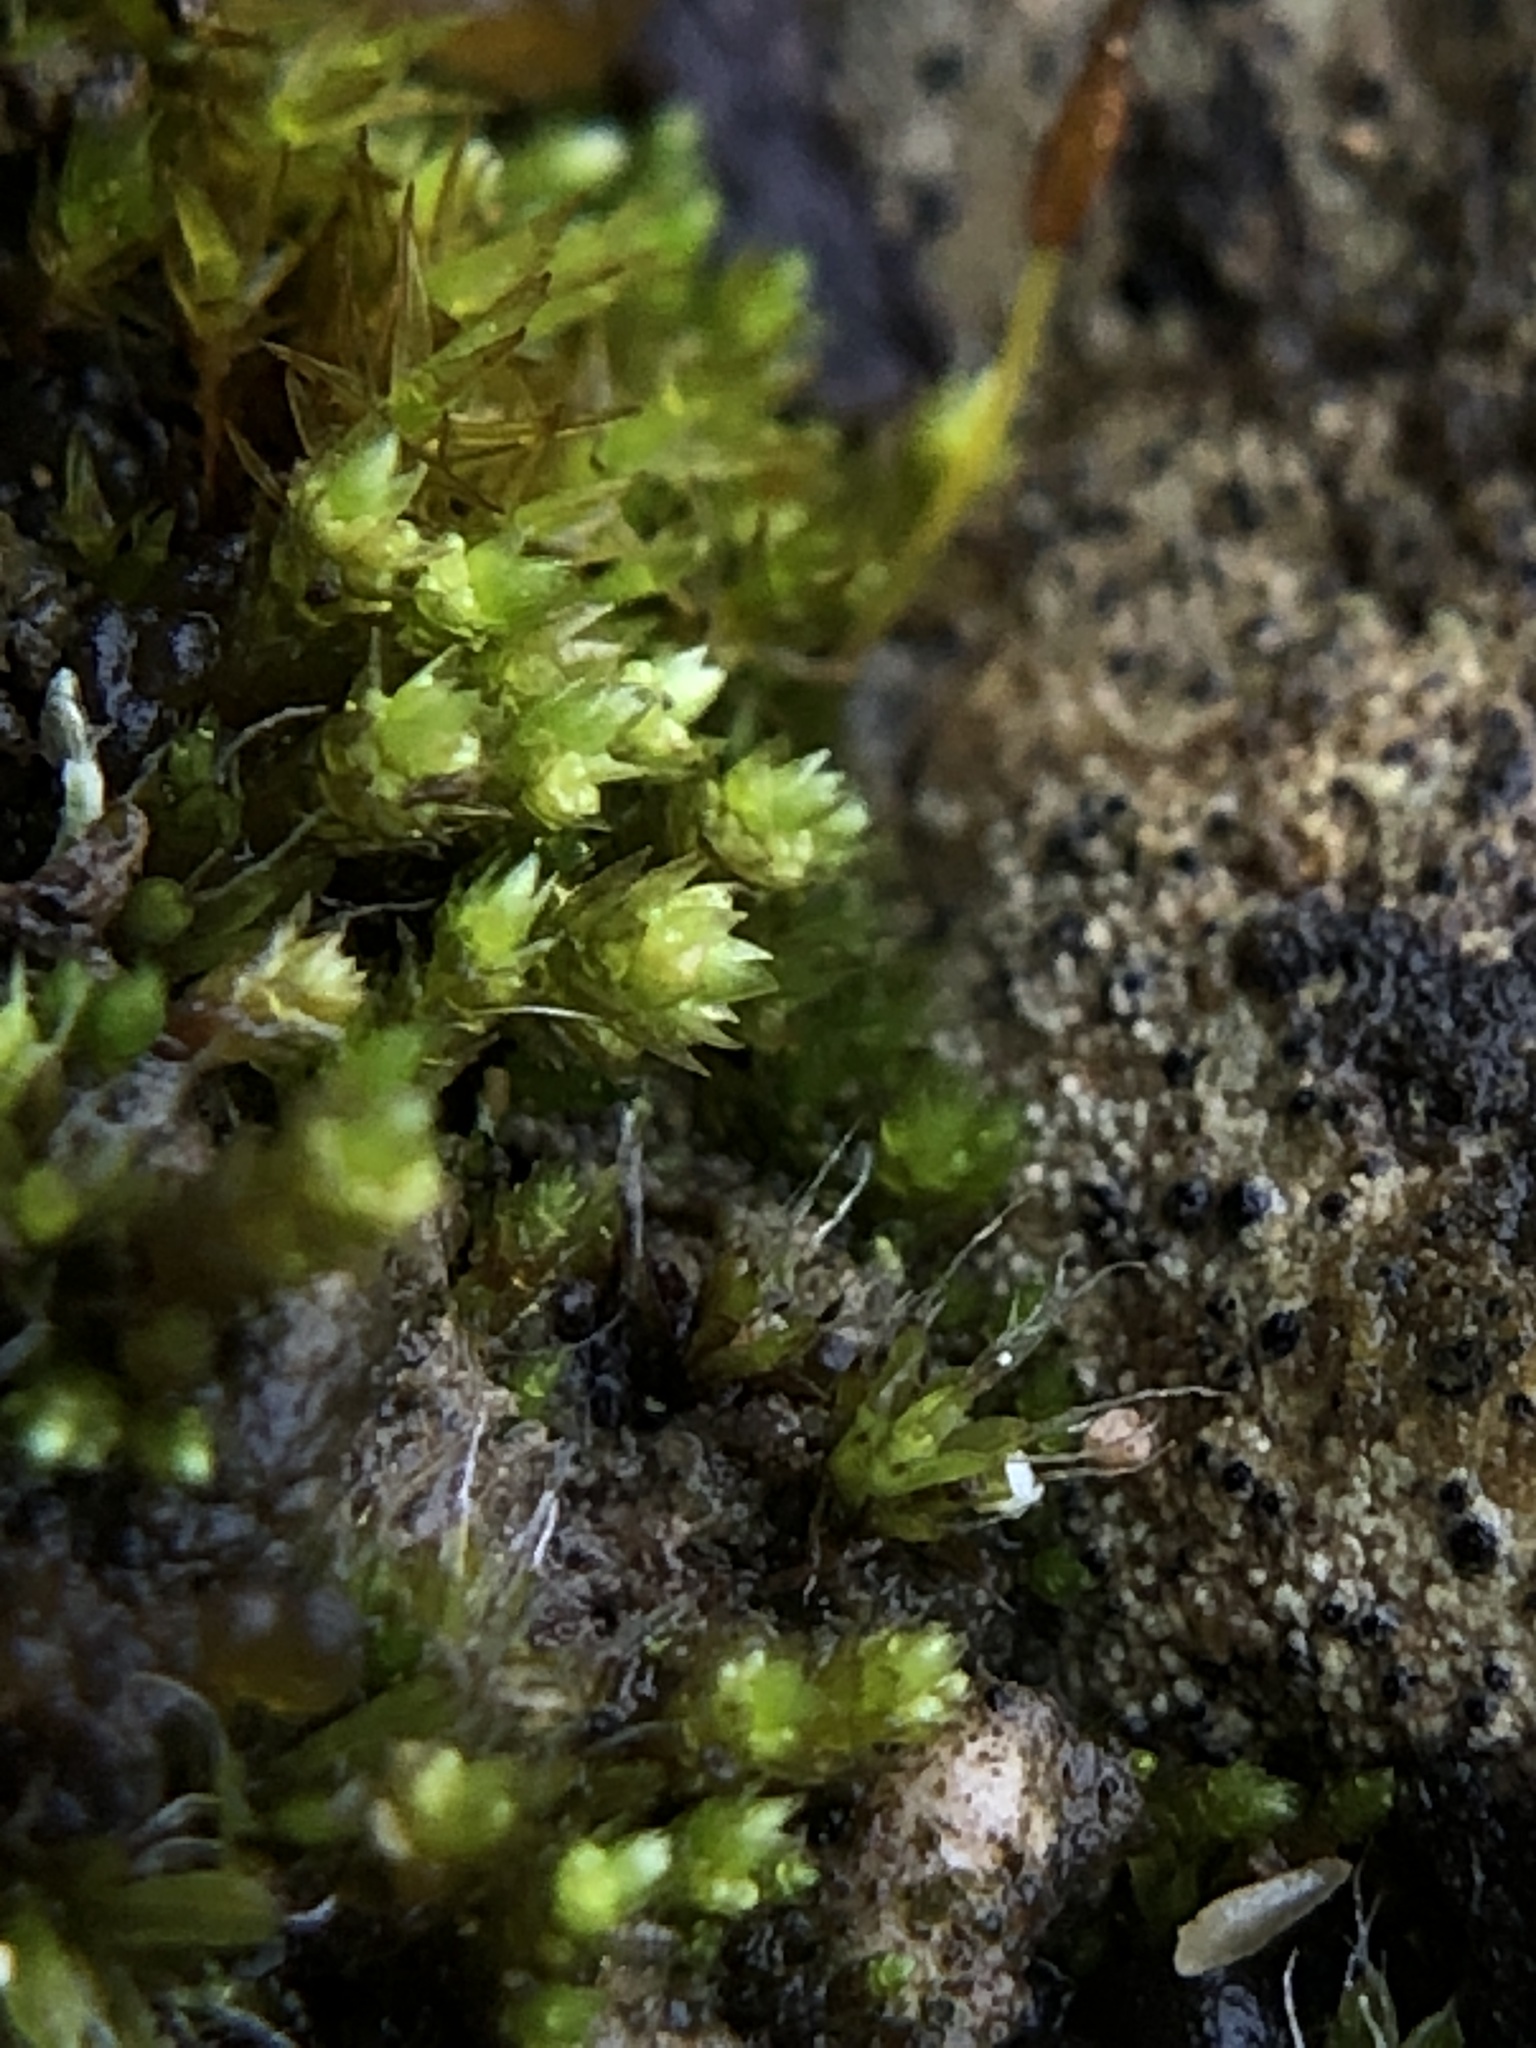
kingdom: Plantae
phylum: Bryophyta
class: Bryopsida
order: Bryales
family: Bryaceae
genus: Gemmabryum
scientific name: Gemmabryum dichotomum
